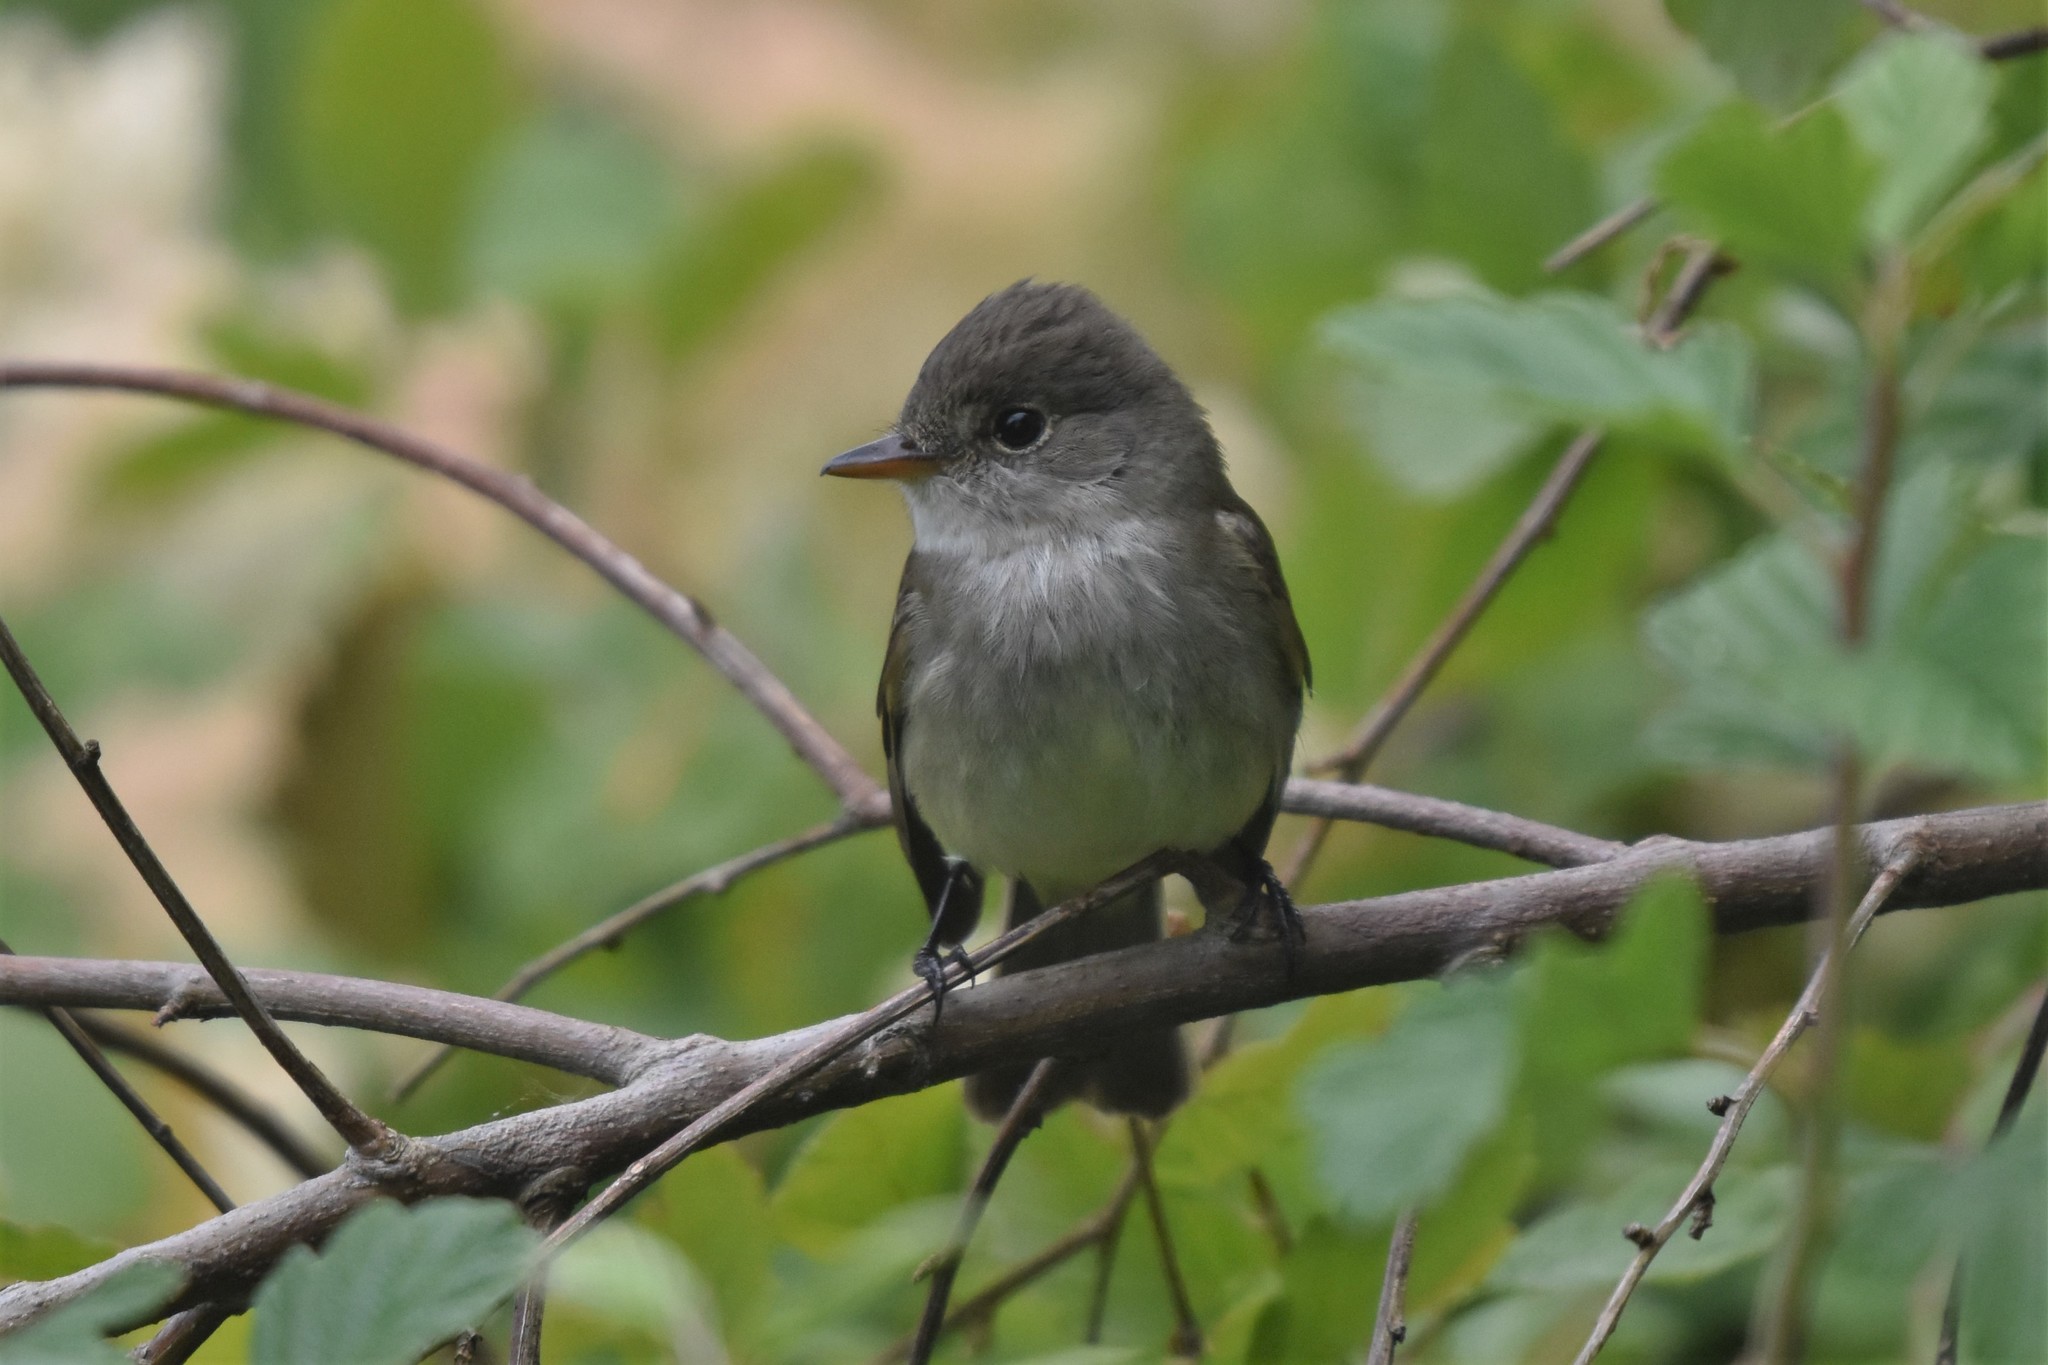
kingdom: Animalia
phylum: Chordata
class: Aves
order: Passeriformes
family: Tyrannidae
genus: Empidonax
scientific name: Empidonax traillii
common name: Willow flycatcher
